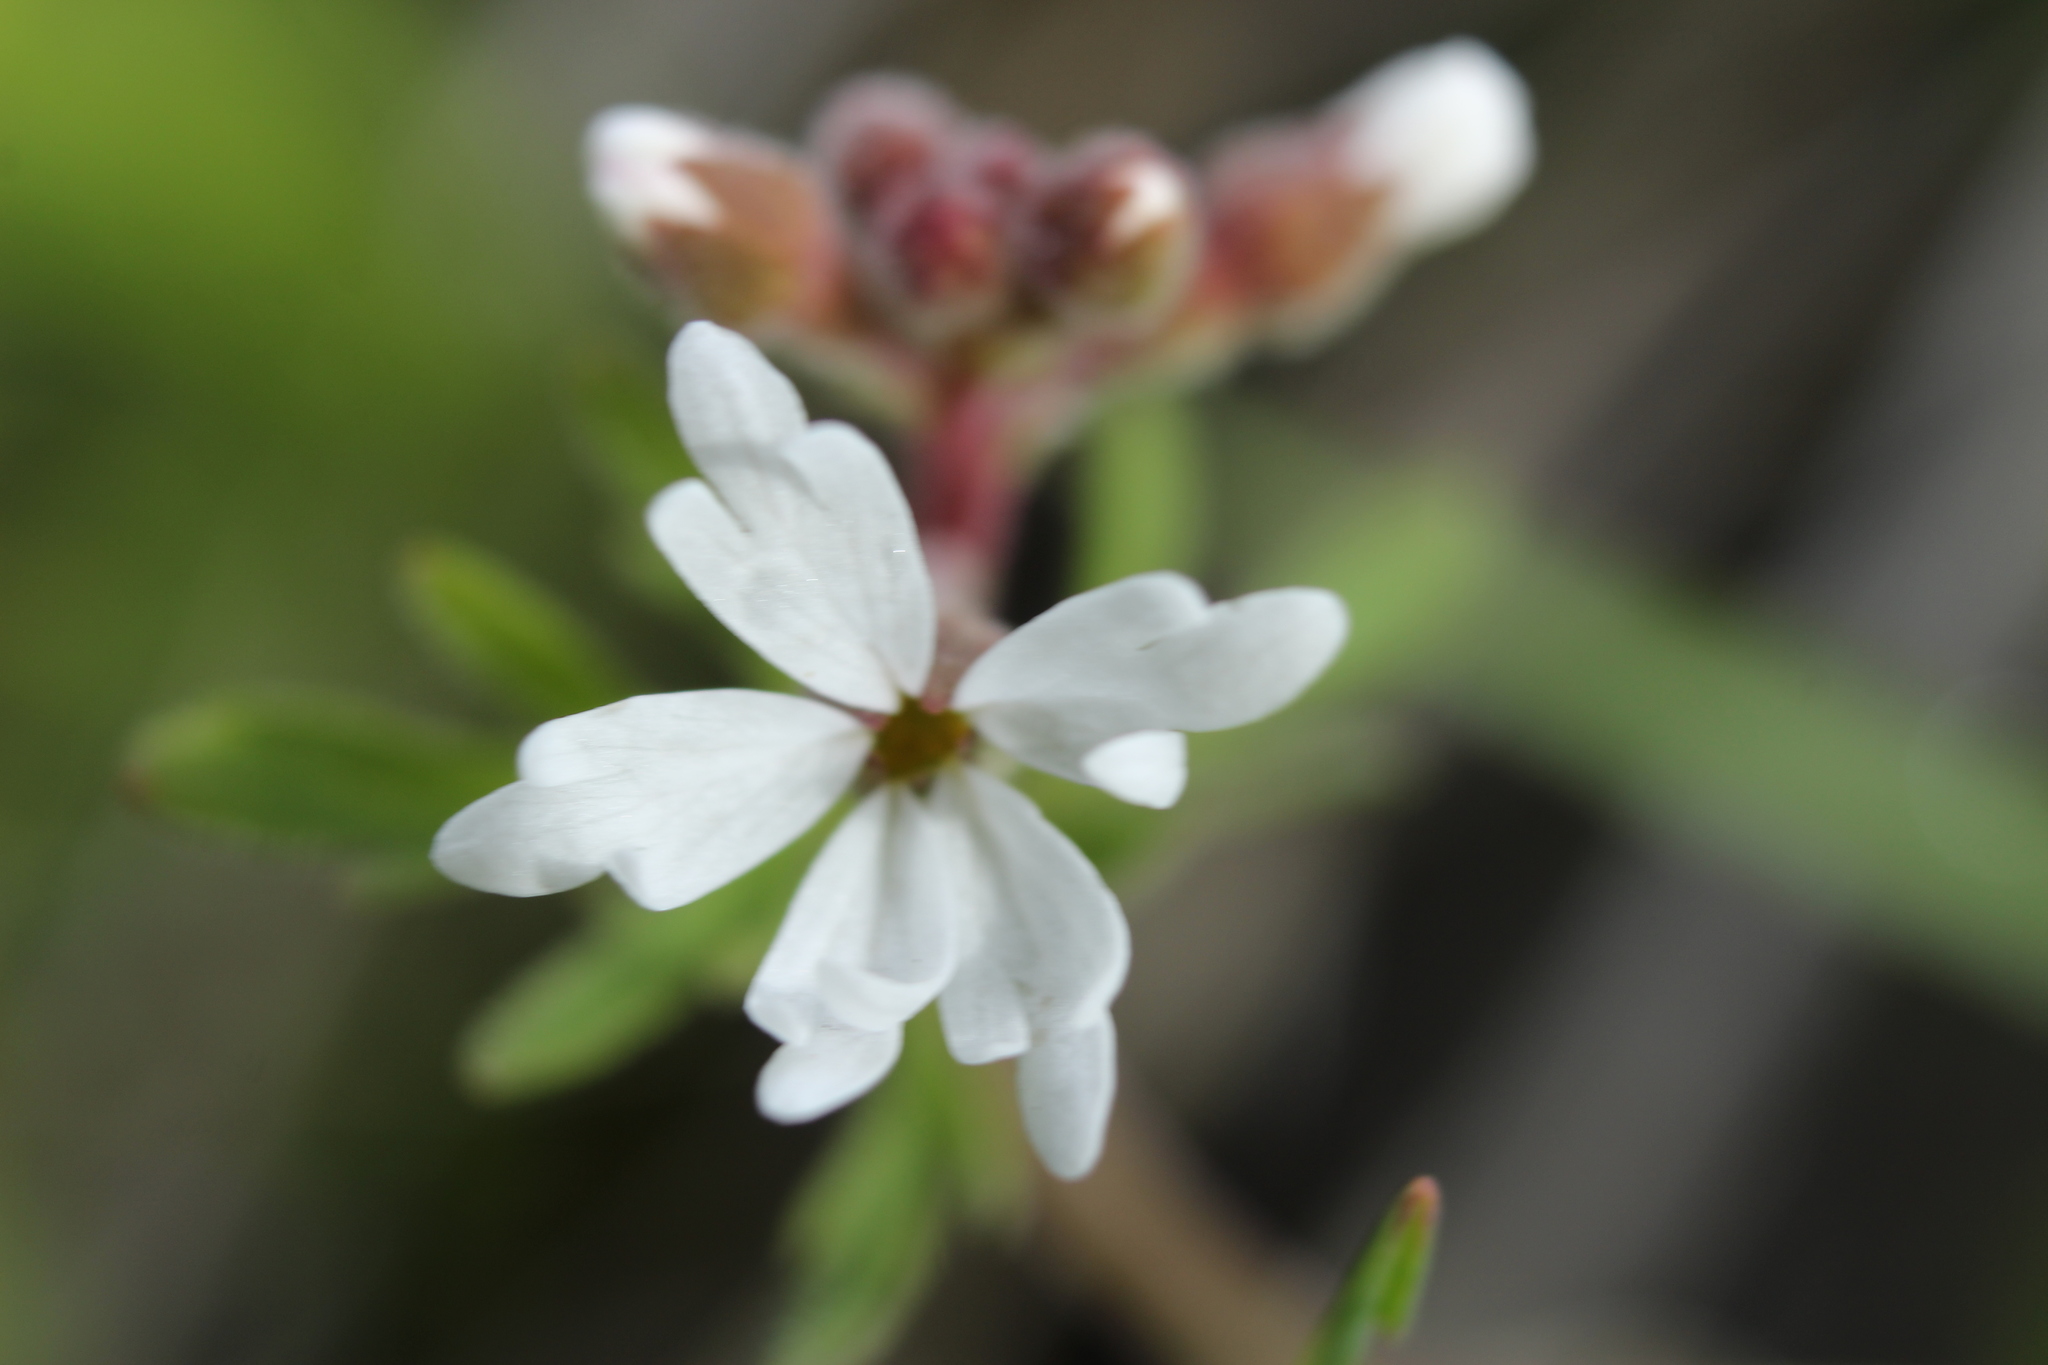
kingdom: Plantae
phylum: Tracheophyta
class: Magnoliopsida
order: Saxifragales
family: Saxifragaceae
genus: Lithophragma
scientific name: Lithophragma parviflorum
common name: Small-flowered fringe-cup
